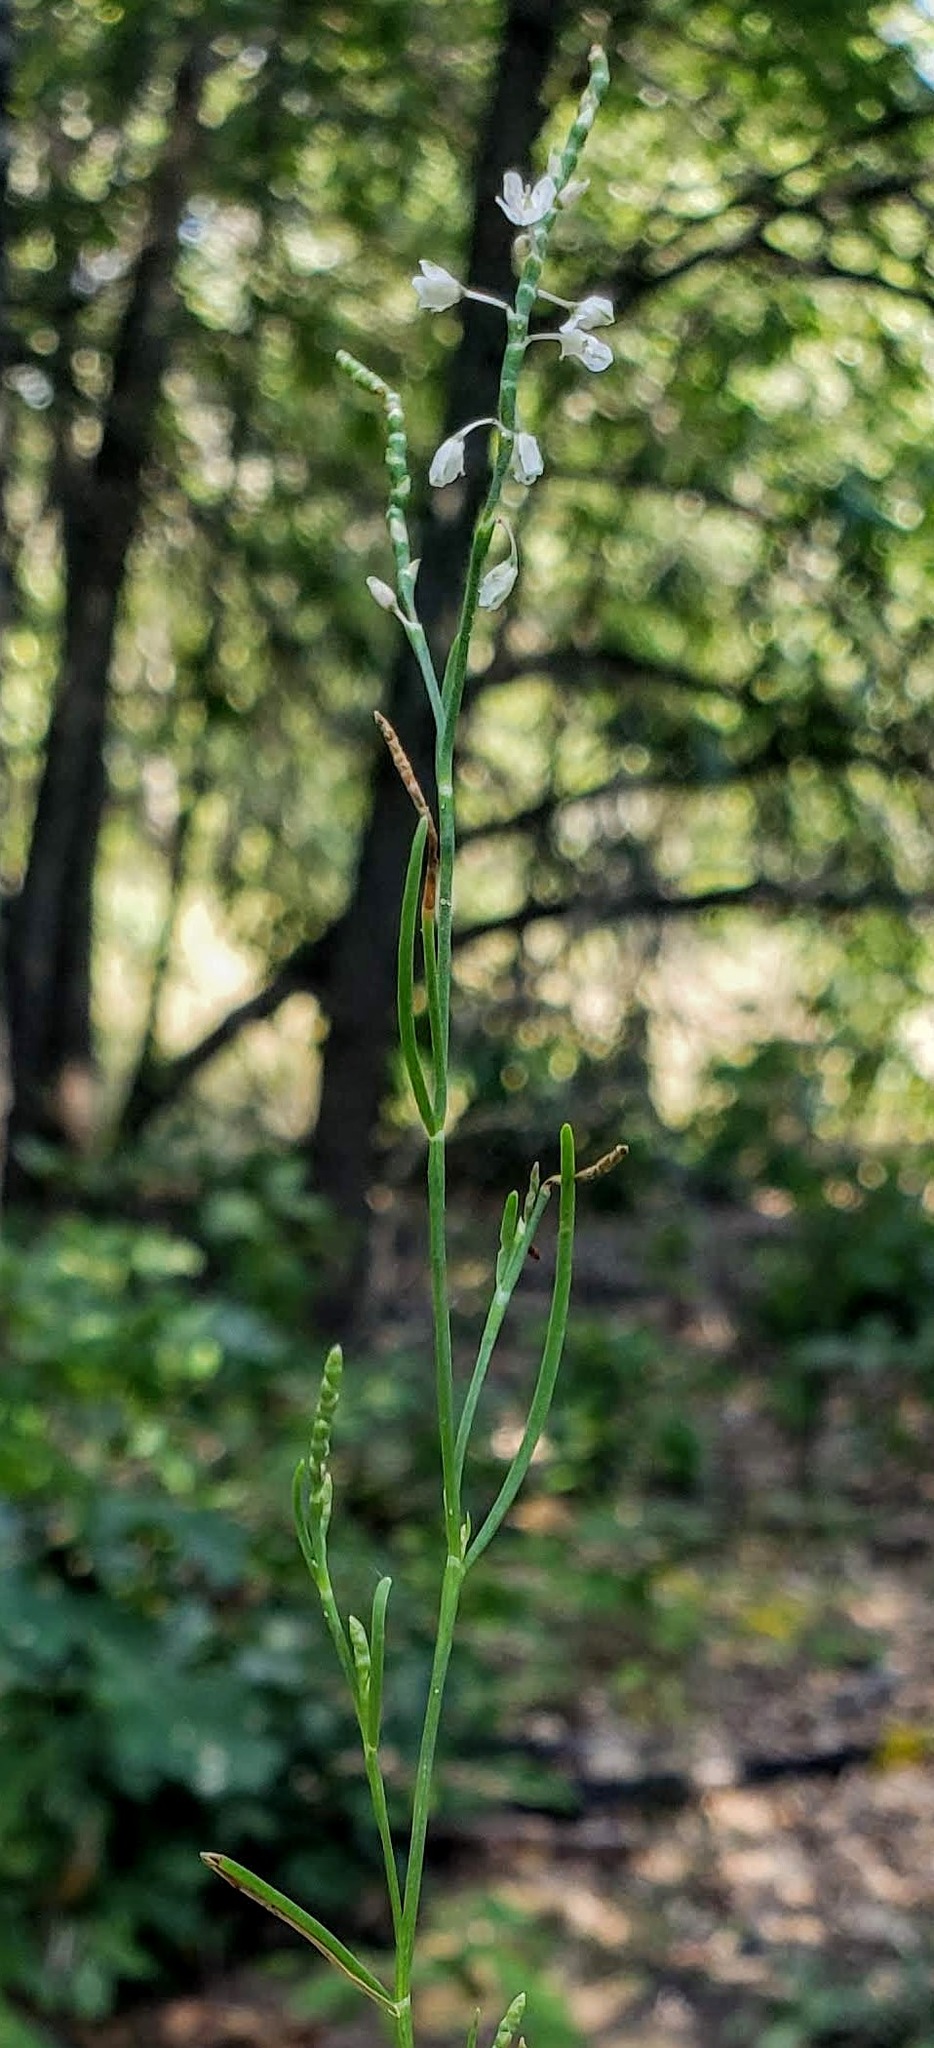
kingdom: Plantae
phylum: Tracheophyta
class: Magnoliopsida
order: Caryophyllales
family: Polygonaceae
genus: Polygonella
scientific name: Polygonella articulata
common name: Coastal jointweed
